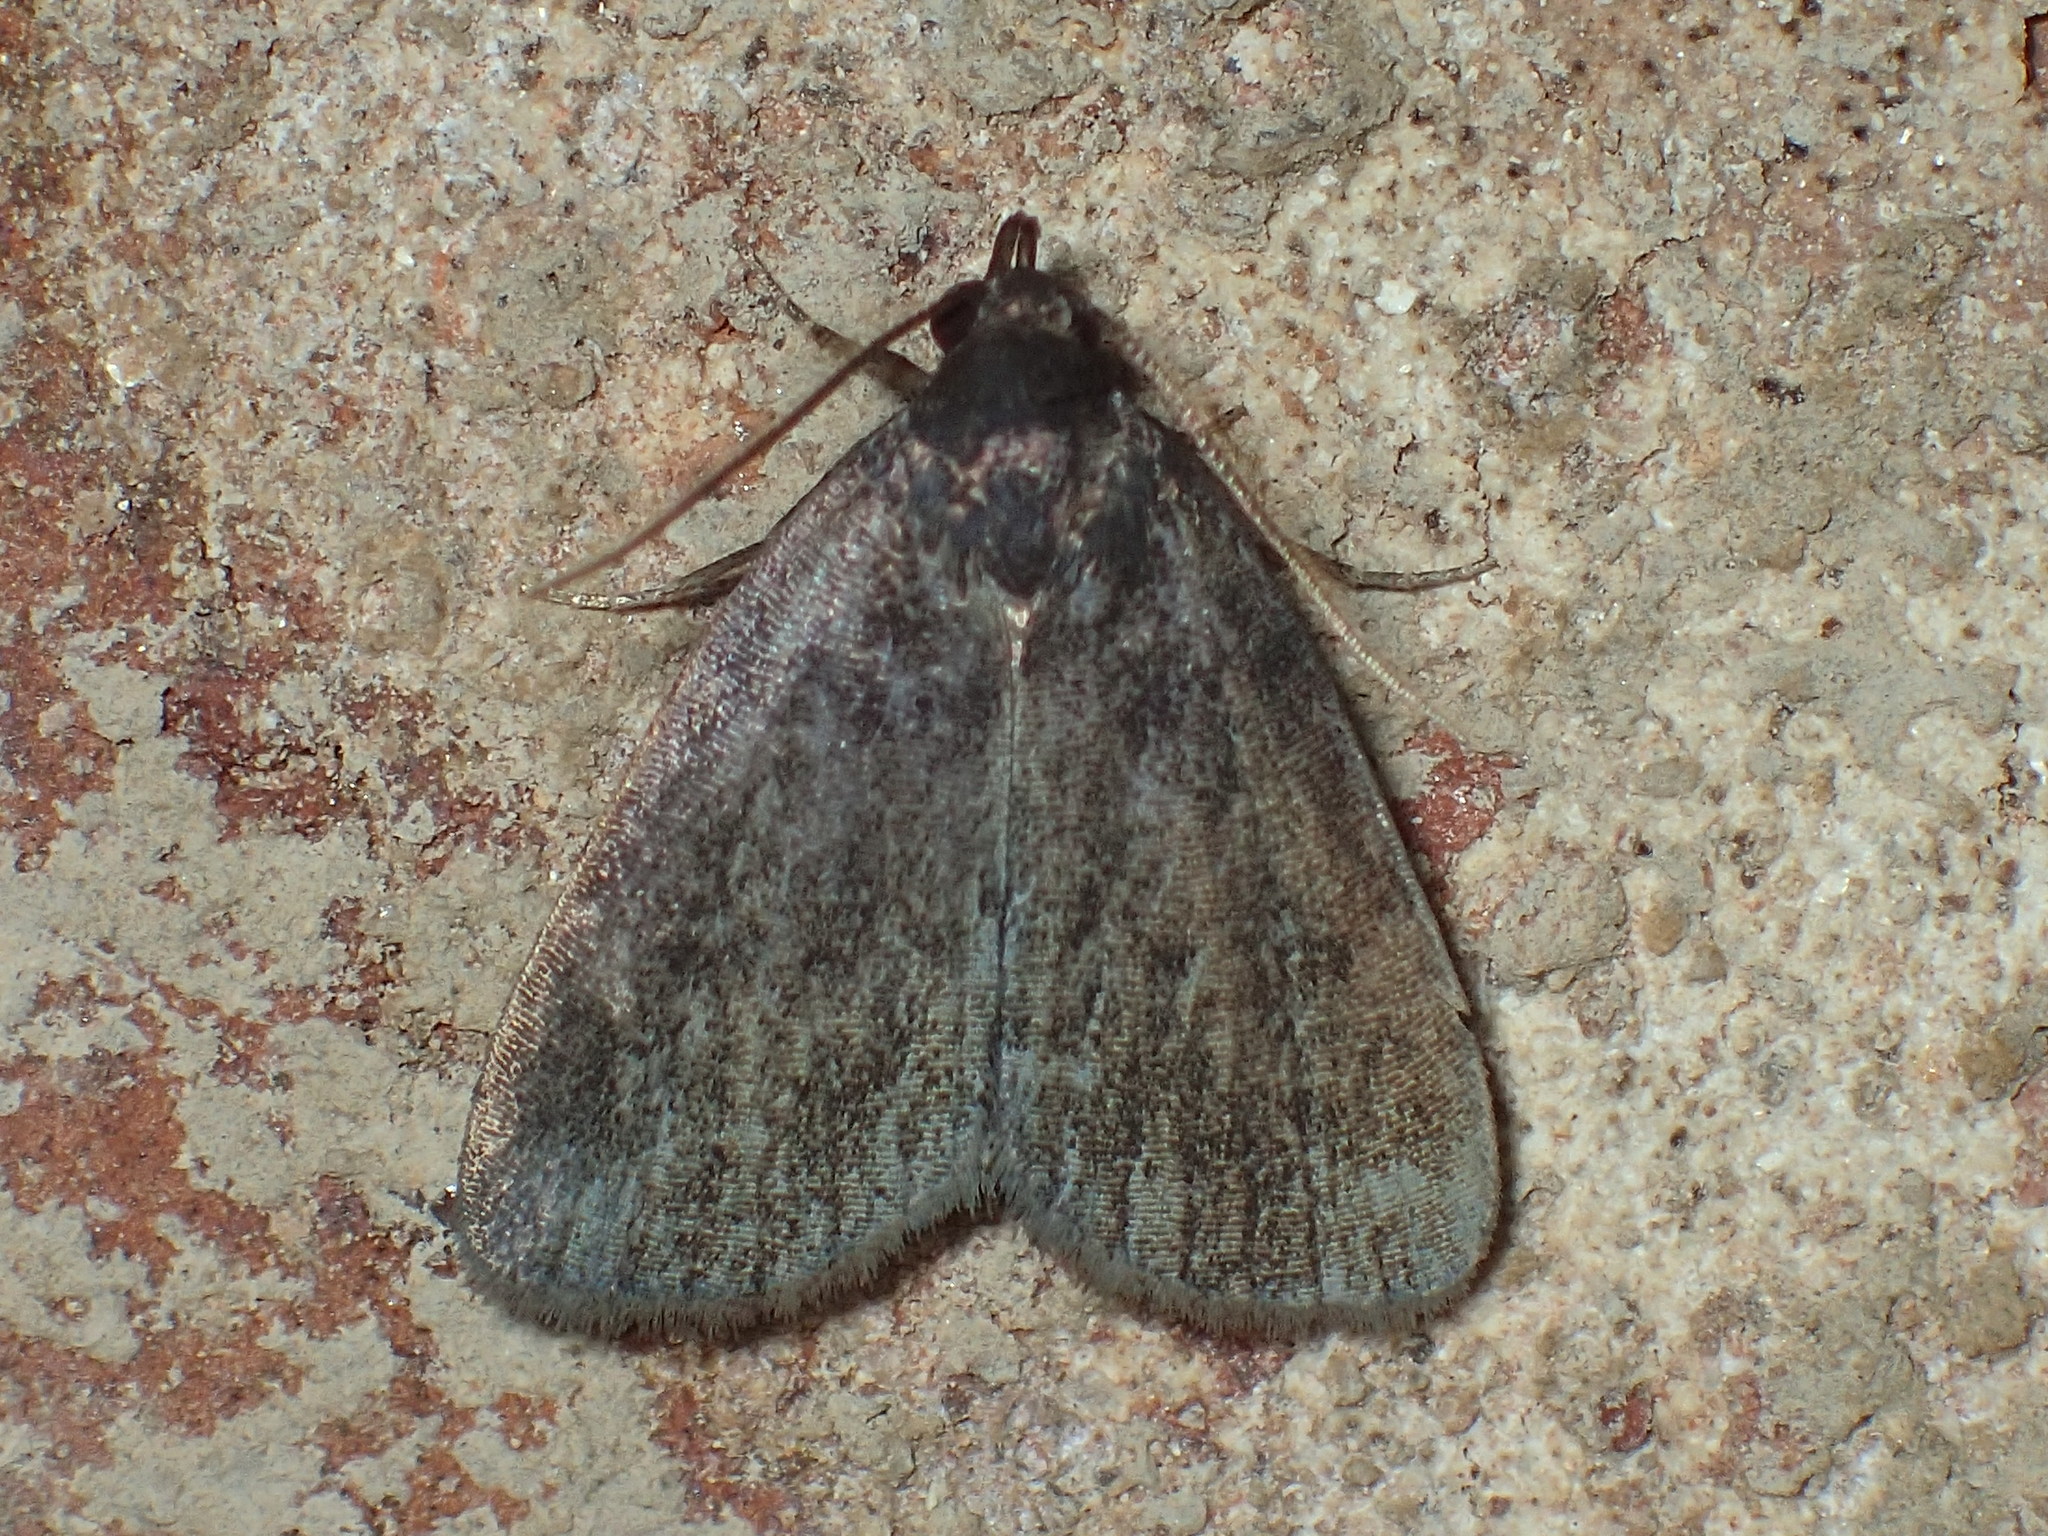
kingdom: Animalia
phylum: Arthropoda
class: Insecta
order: Lepidoptera
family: Erebidae
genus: Idia
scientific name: Idia rotundalis
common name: Rotund idia moth
